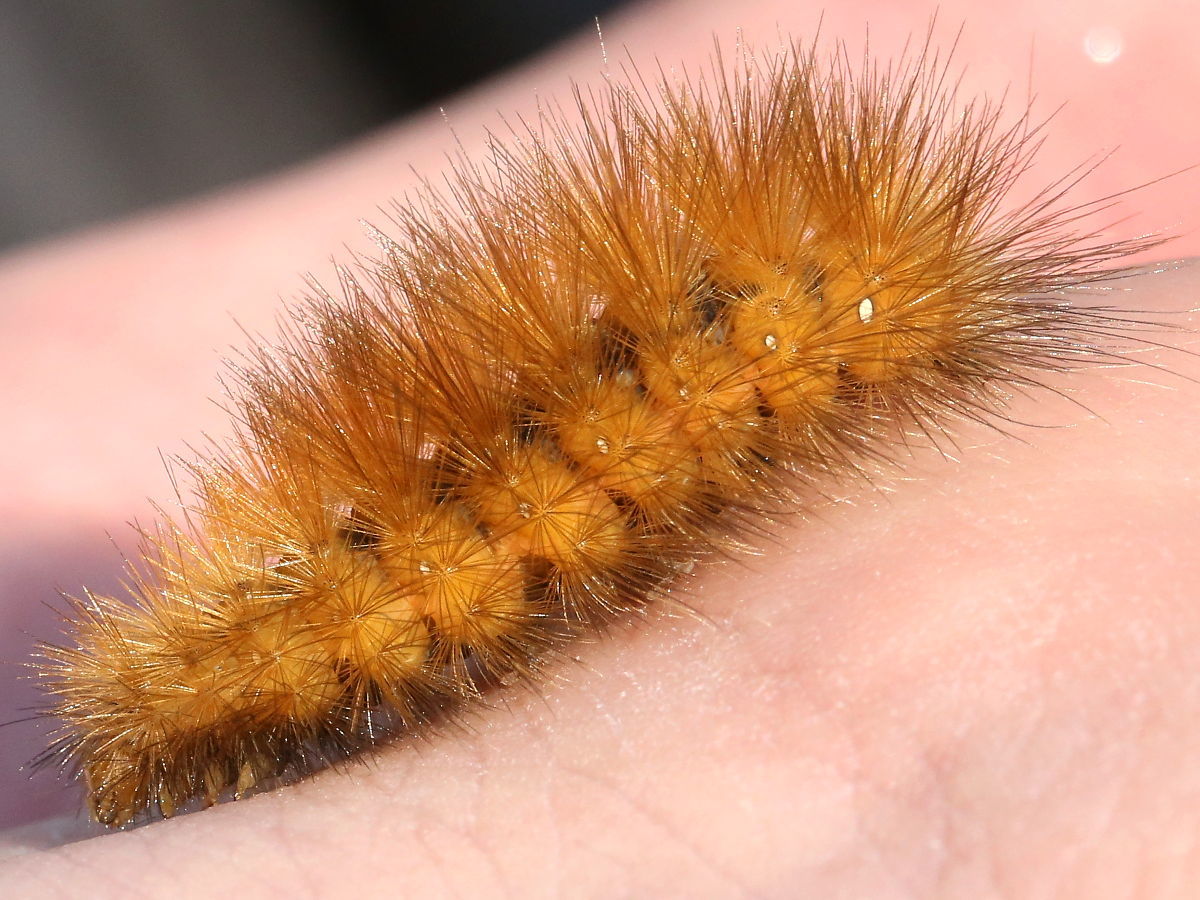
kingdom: Animalia
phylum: Arthropoda
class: Insecta
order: Lepidoptera
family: Erebidae
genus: Spilosoma
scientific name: Spilosoma virginica
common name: Virginia tiger moth
